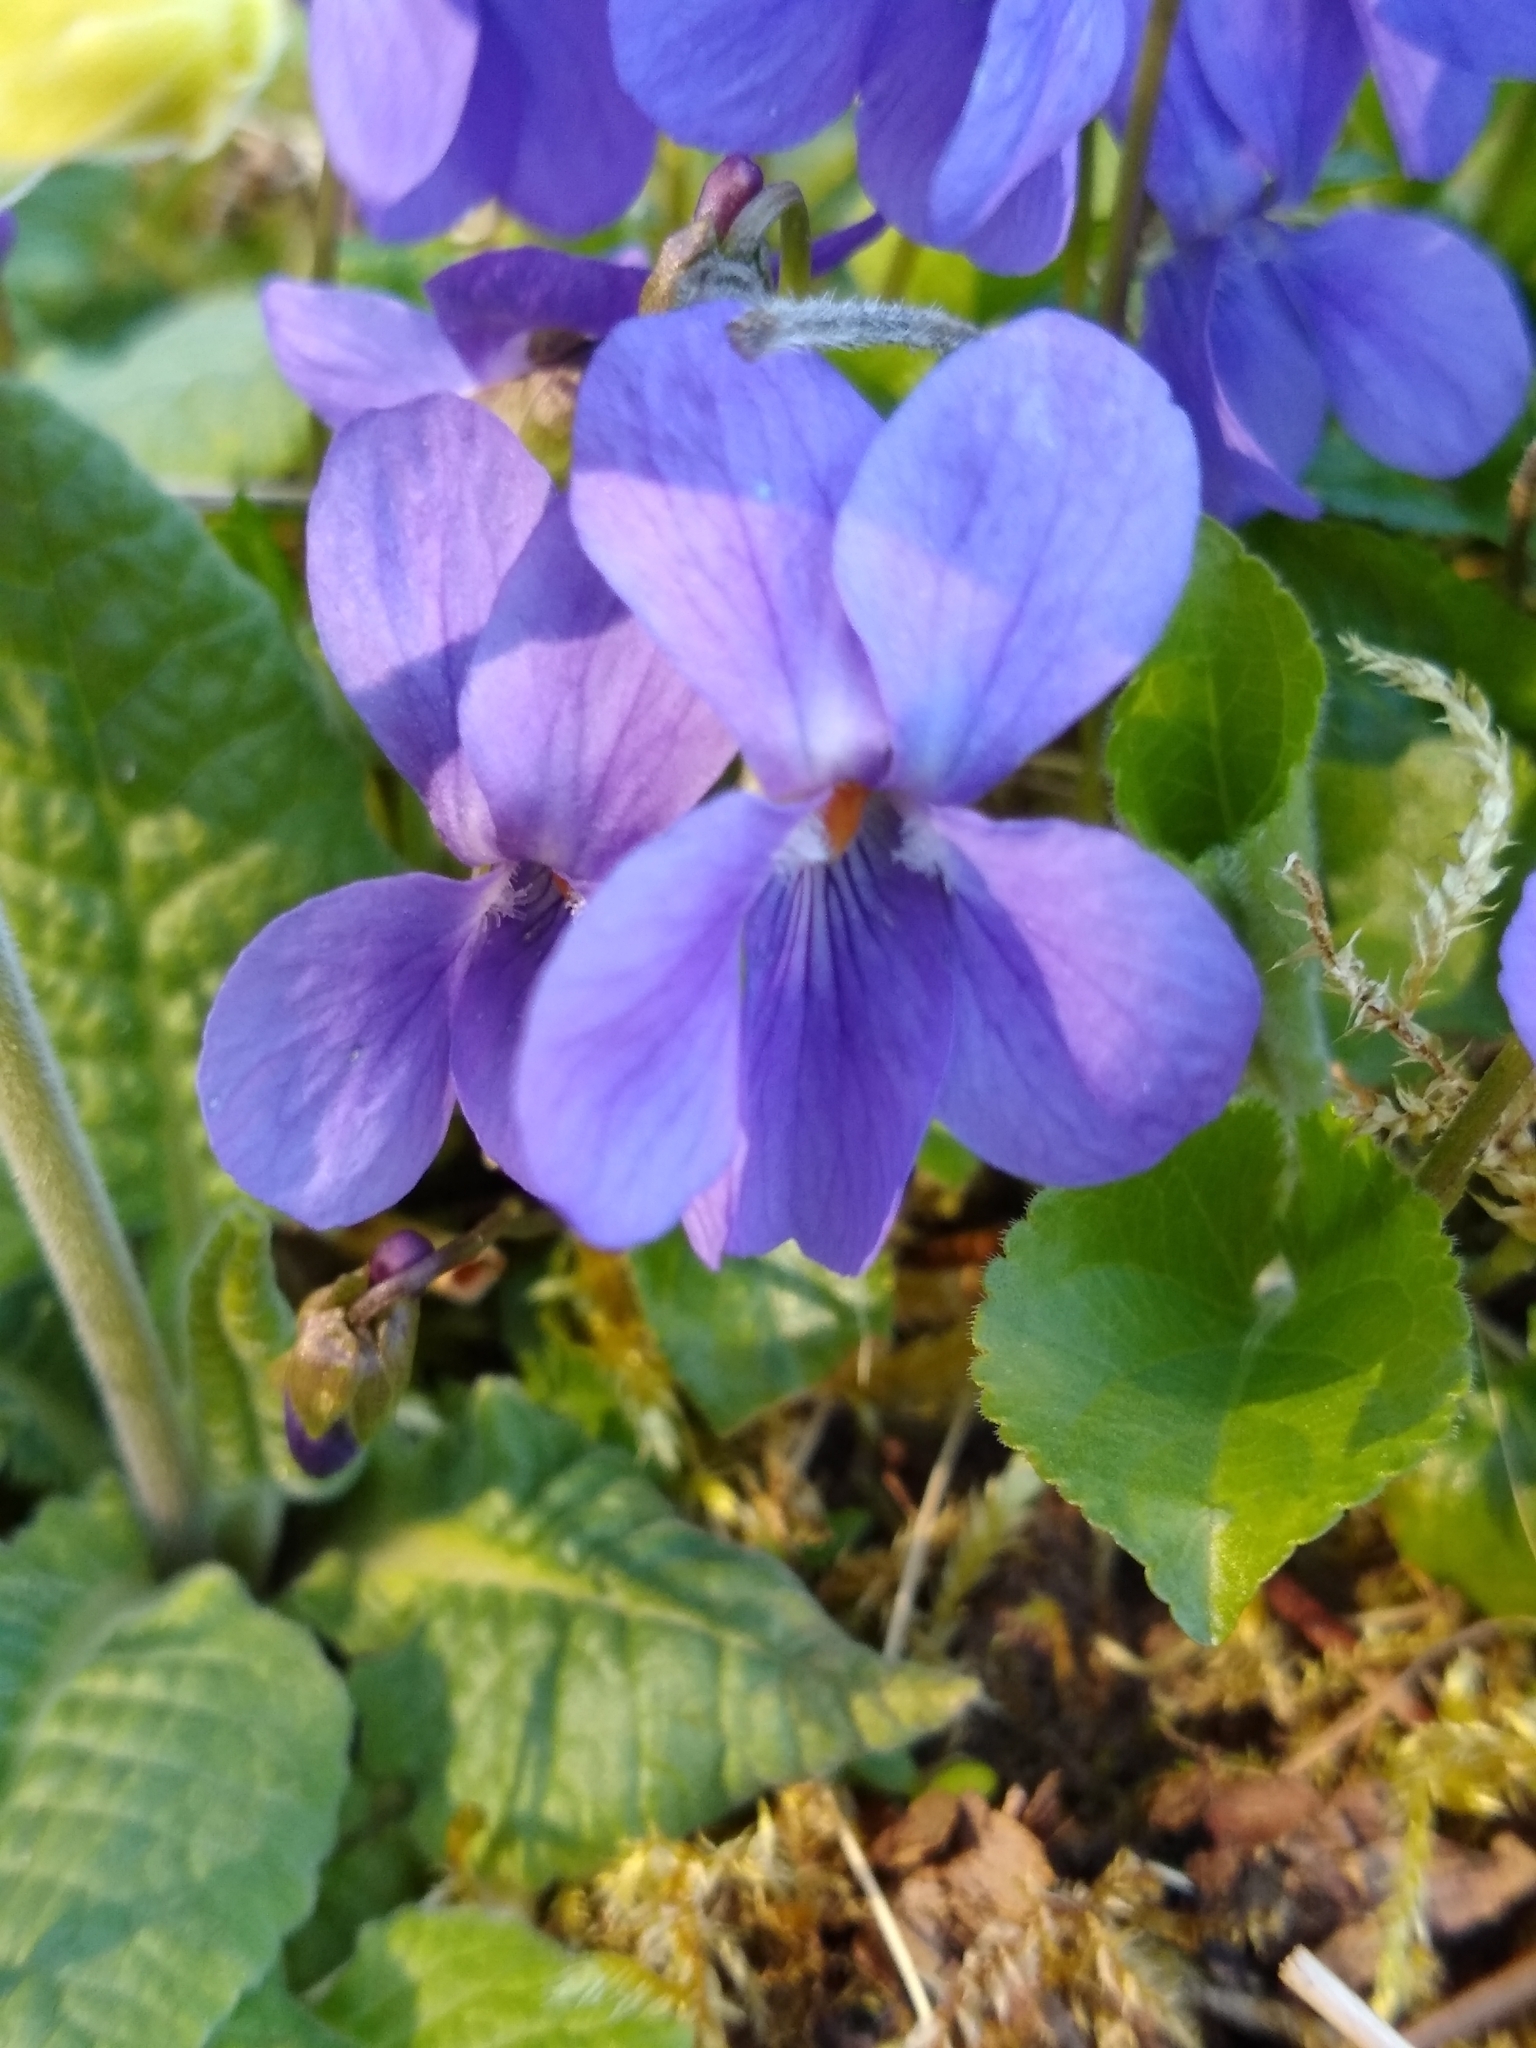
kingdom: Plantae
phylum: Tracheophyta
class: Magnoliopsida
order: Malpighiales
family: Violaceae
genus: Viola
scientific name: Viola odorata
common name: Sweet violet
